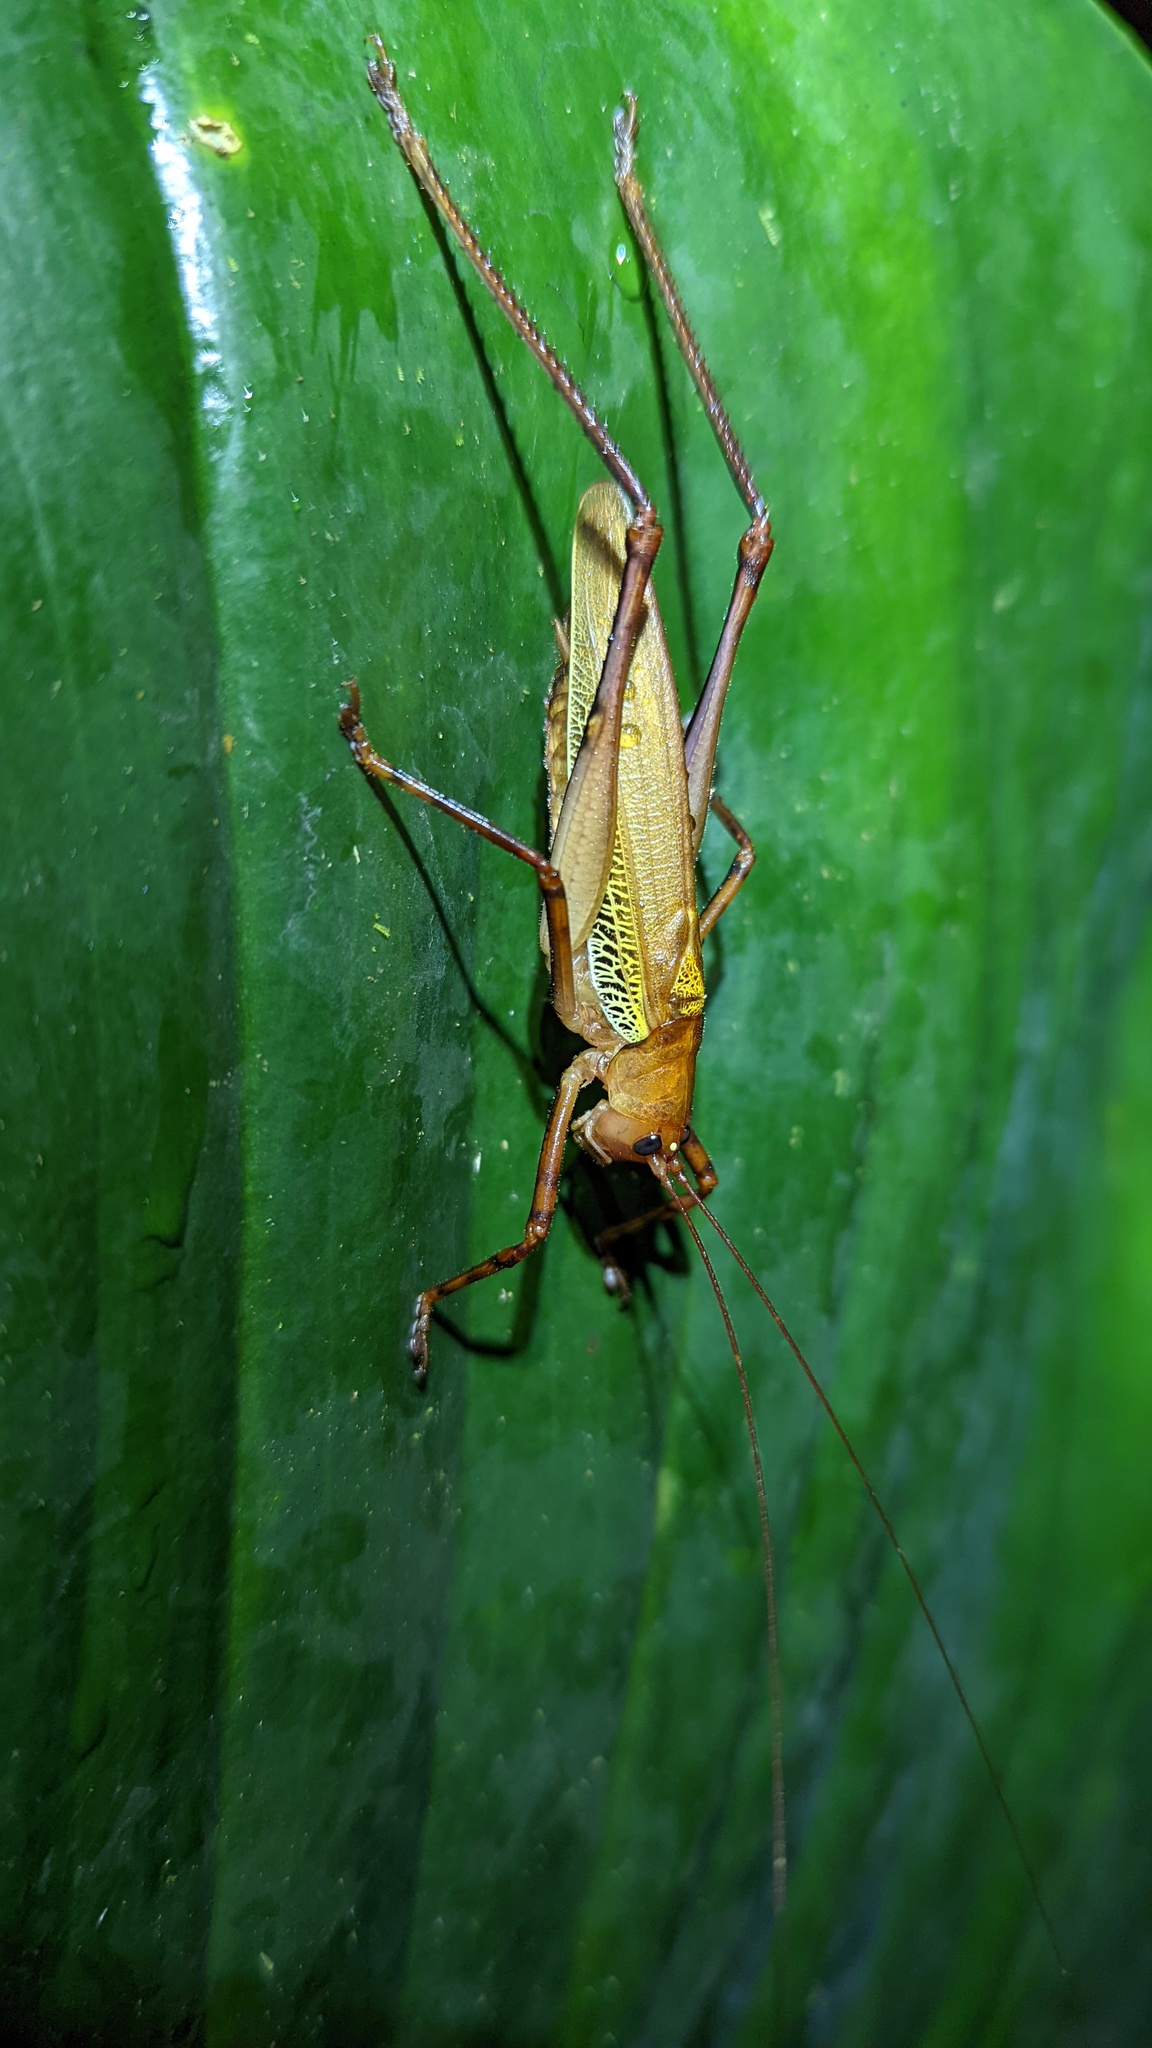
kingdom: Animalia
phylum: Arthropoda
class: Insecta
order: Orthoptera
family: Tettigoniidae
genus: Ischnomela
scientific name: Ischnomela pulchripennis
